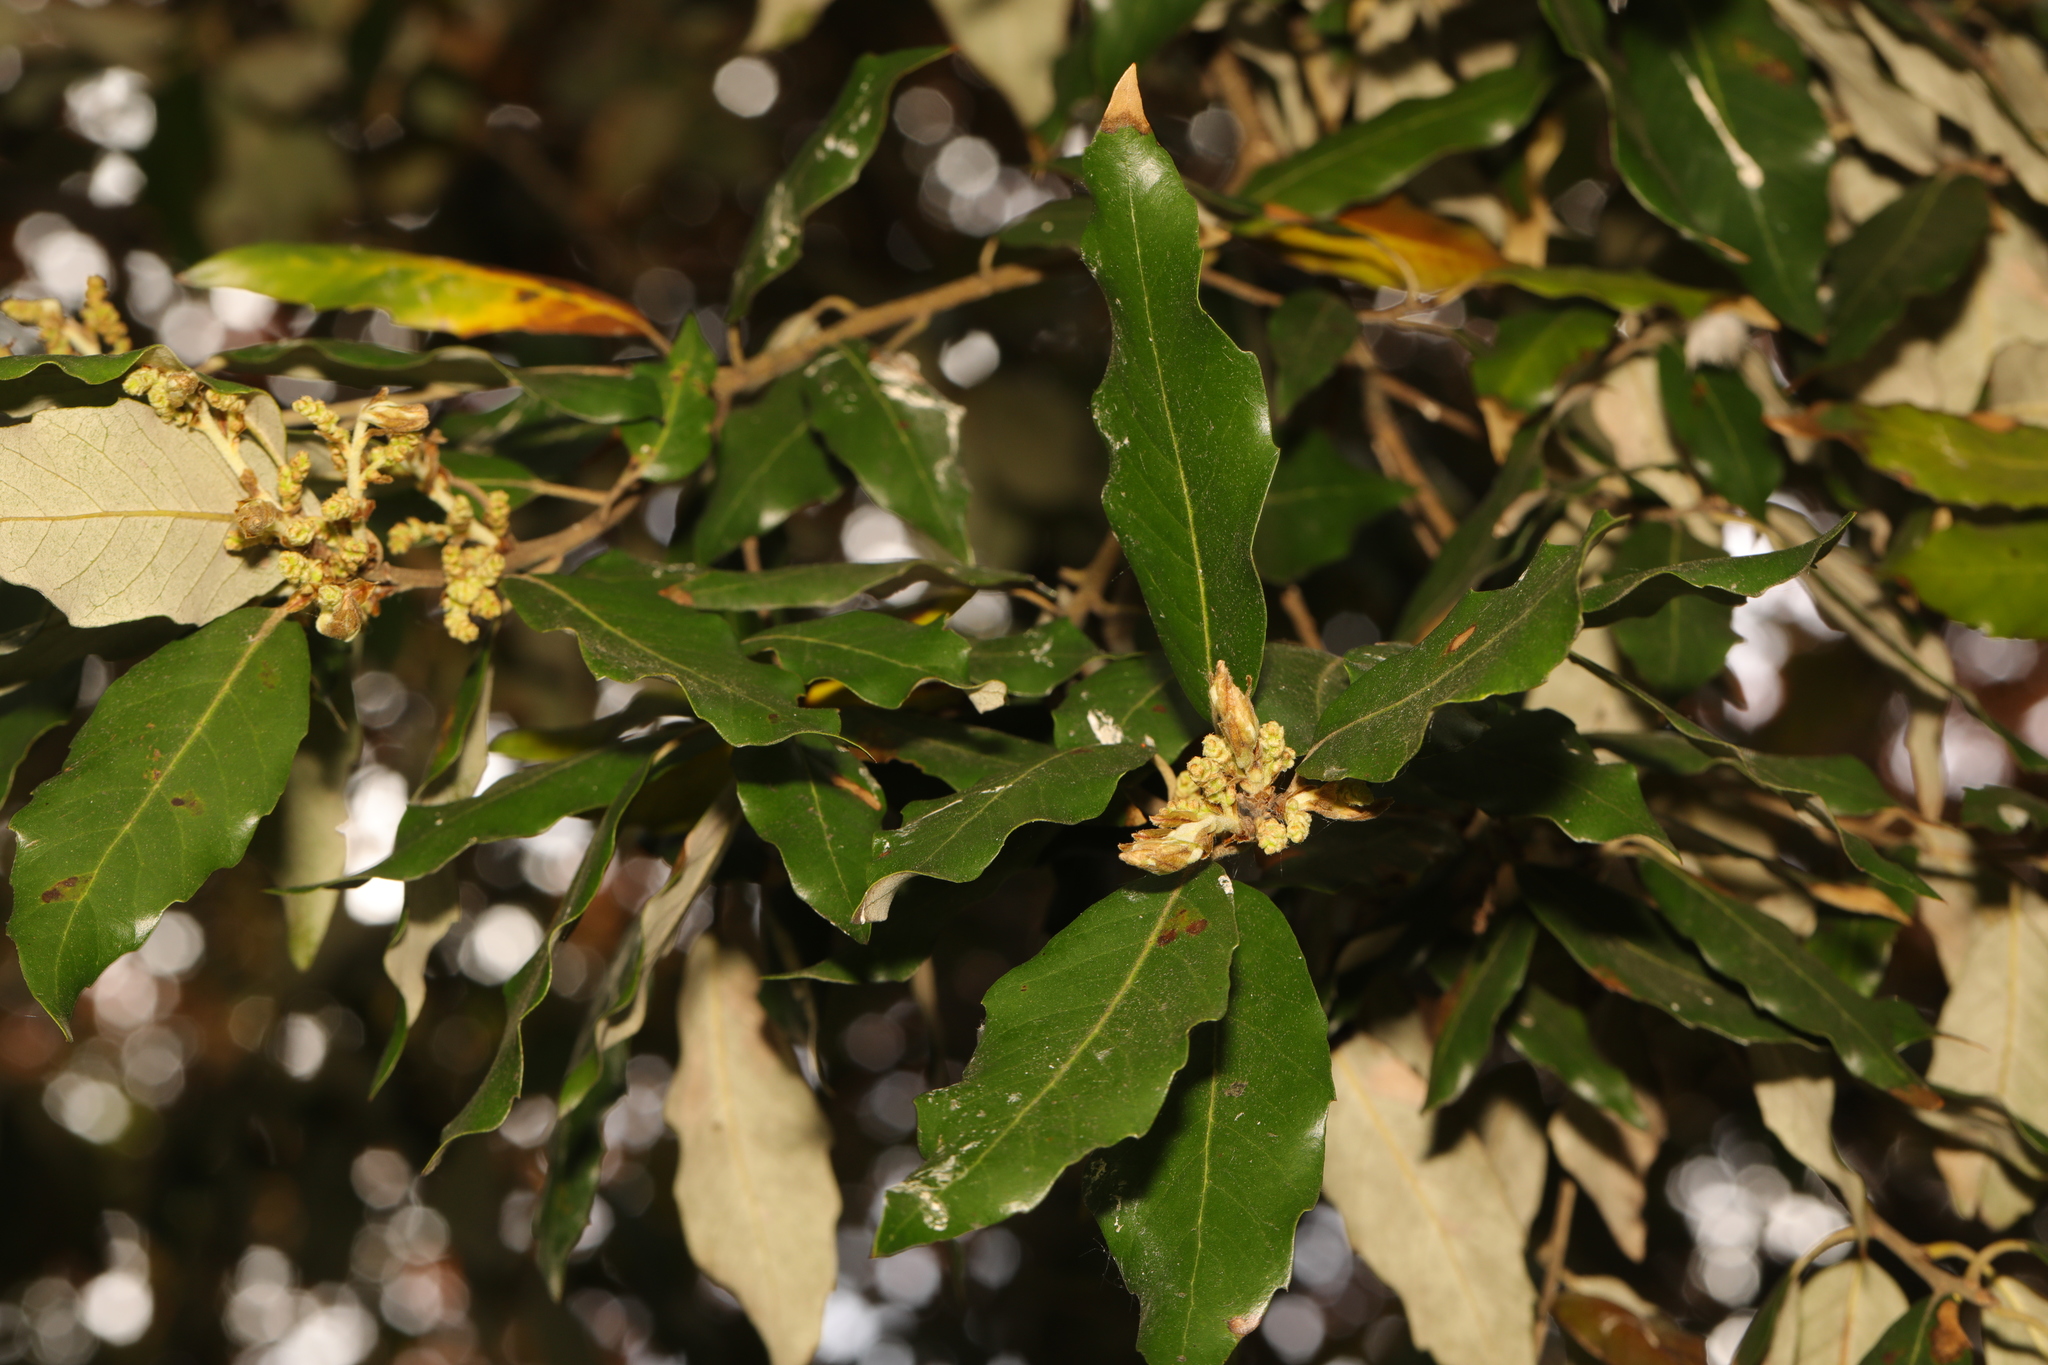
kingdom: Plantae
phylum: Tracheophyta
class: Magnoliopsida
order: Fagales
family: Fagaceae
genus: Quercus
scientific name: Quercus ilex
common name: Evergreen oak
